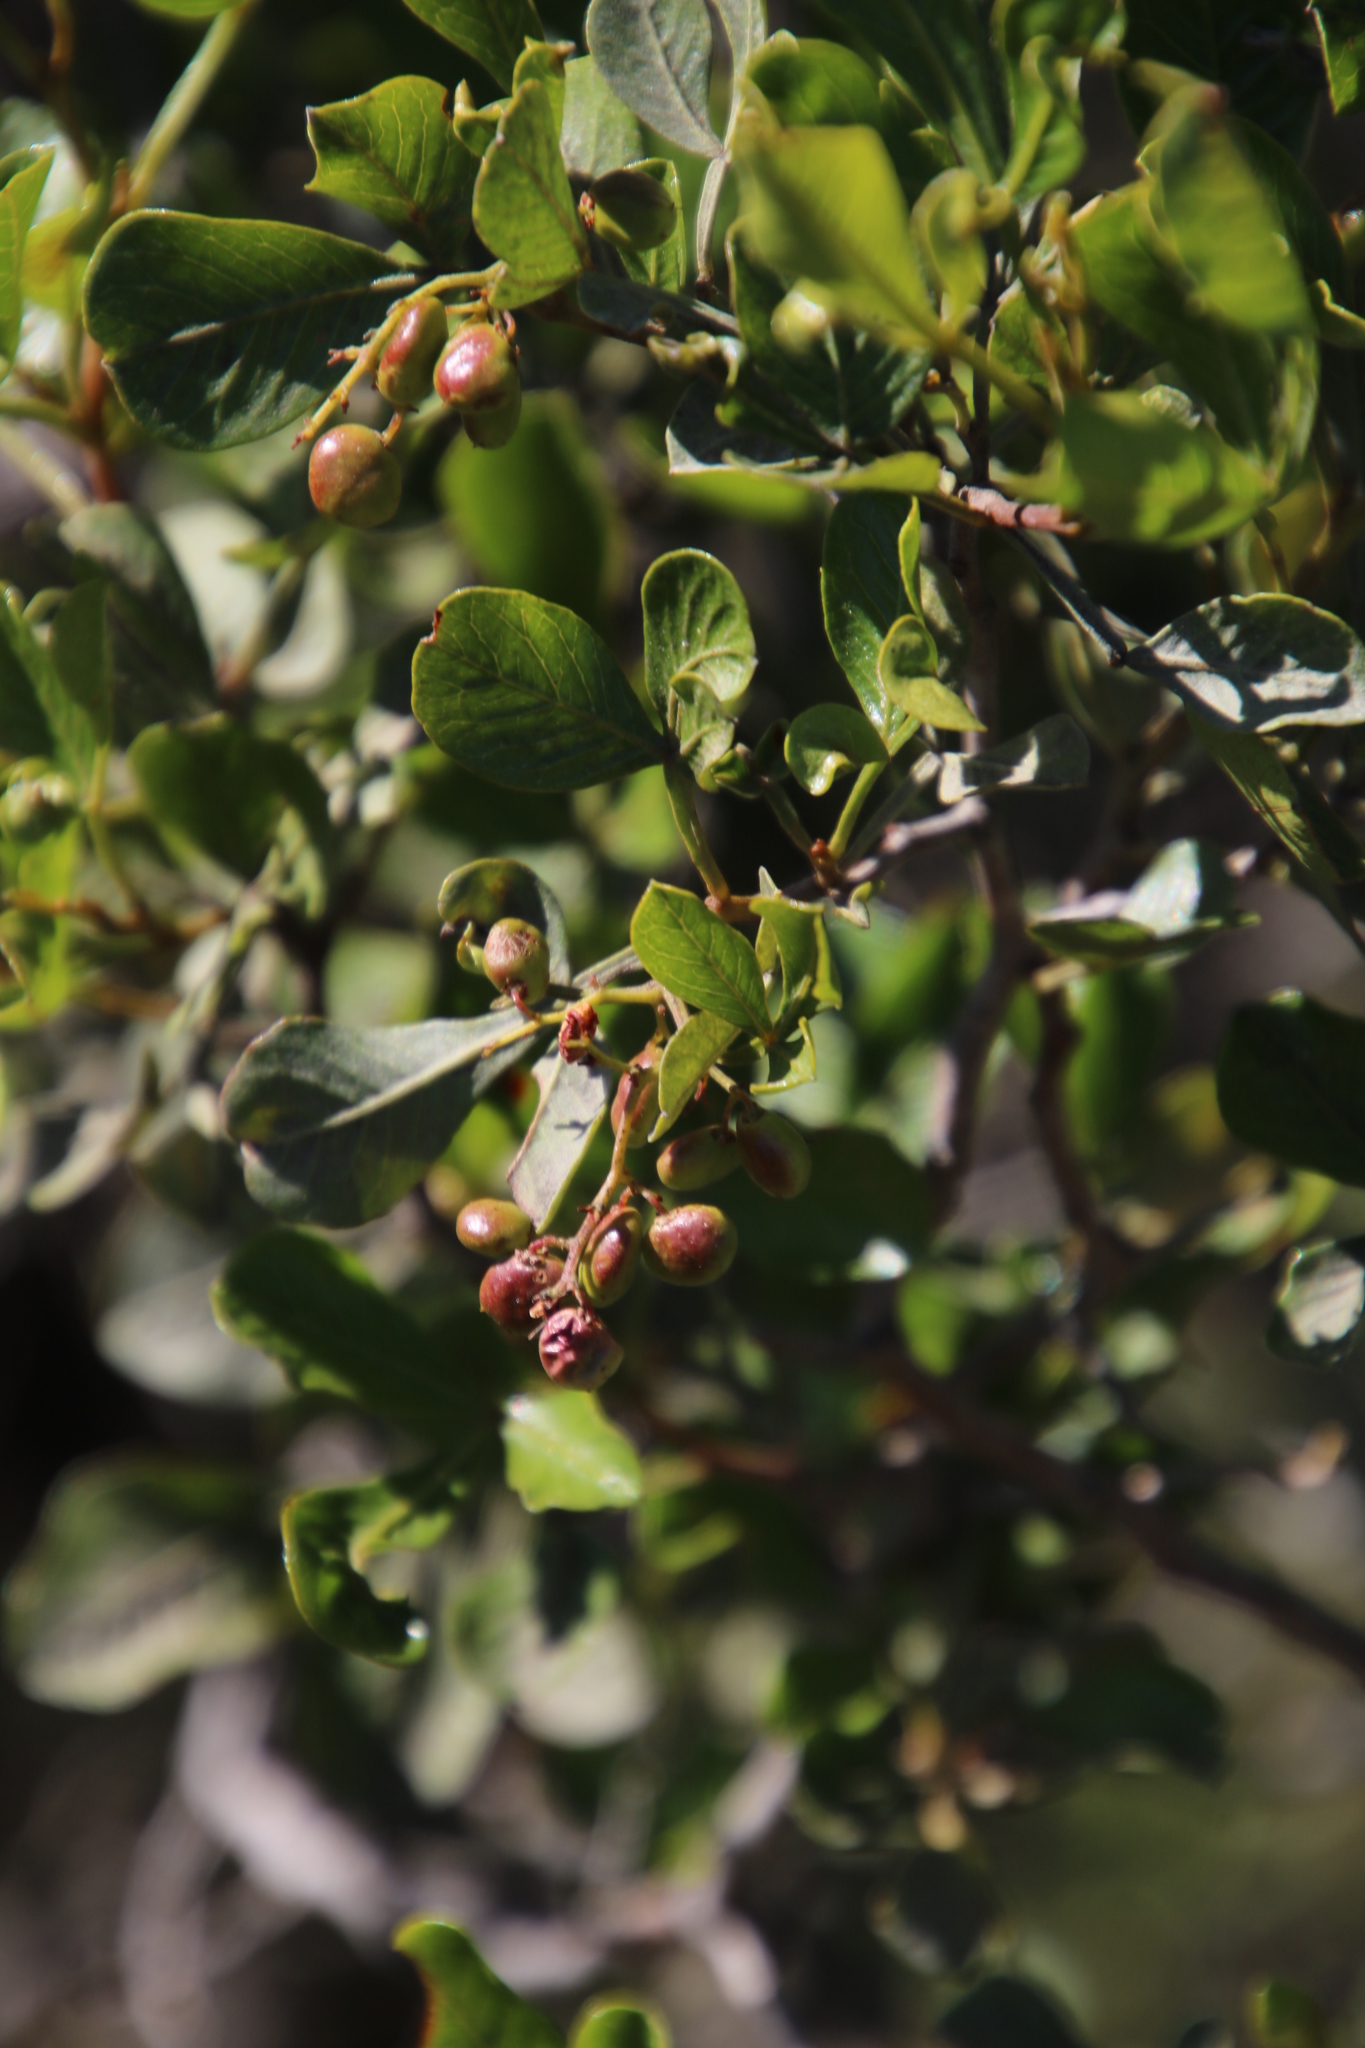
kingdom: Plantae
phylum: Tracheophyta
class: Magnoliopsida
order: Sapindales
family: Anacardiaceae
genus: Searsia
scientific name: Searsia pallens
